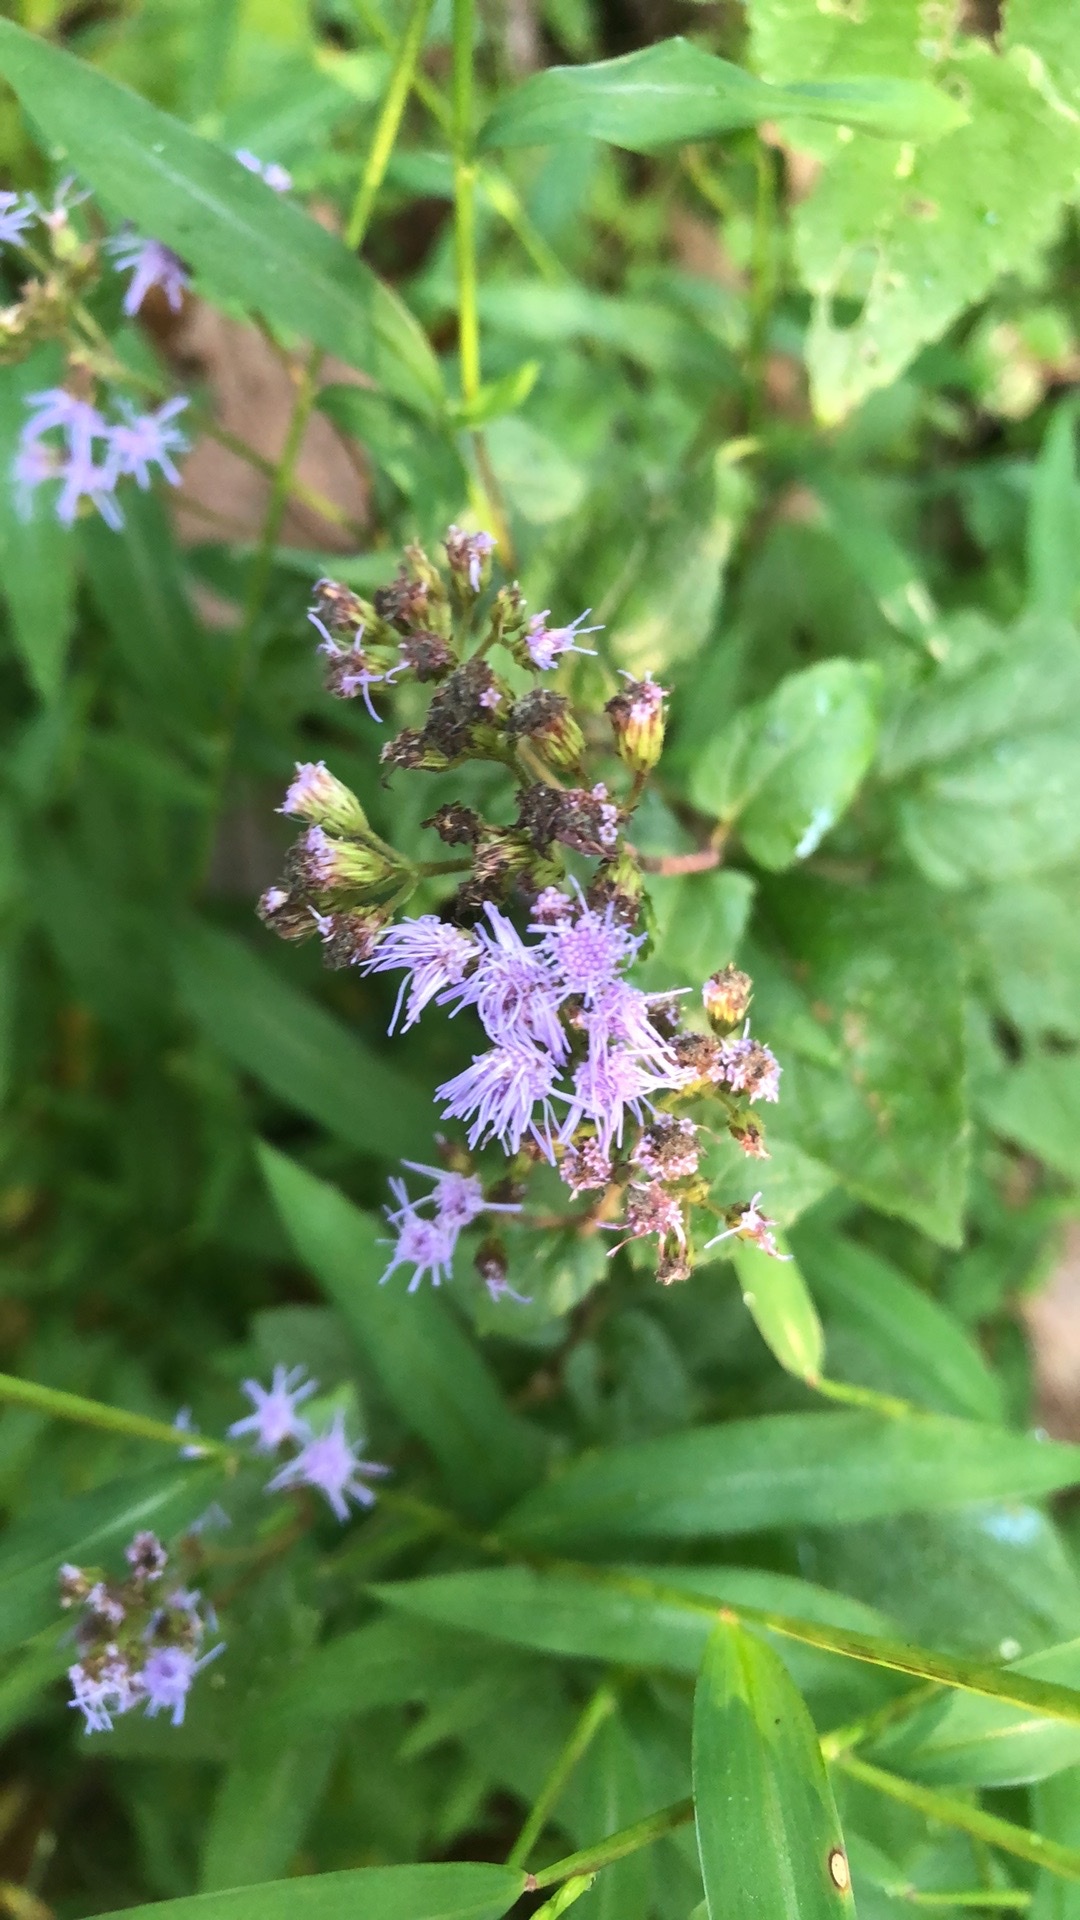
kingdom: Plantae
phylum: Tracheophyta
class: Magnoliopsida
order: Asterales
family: Asteraceae
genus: Conoclinium
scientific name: Conoclinium coelestinum
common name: Blue mistflower
